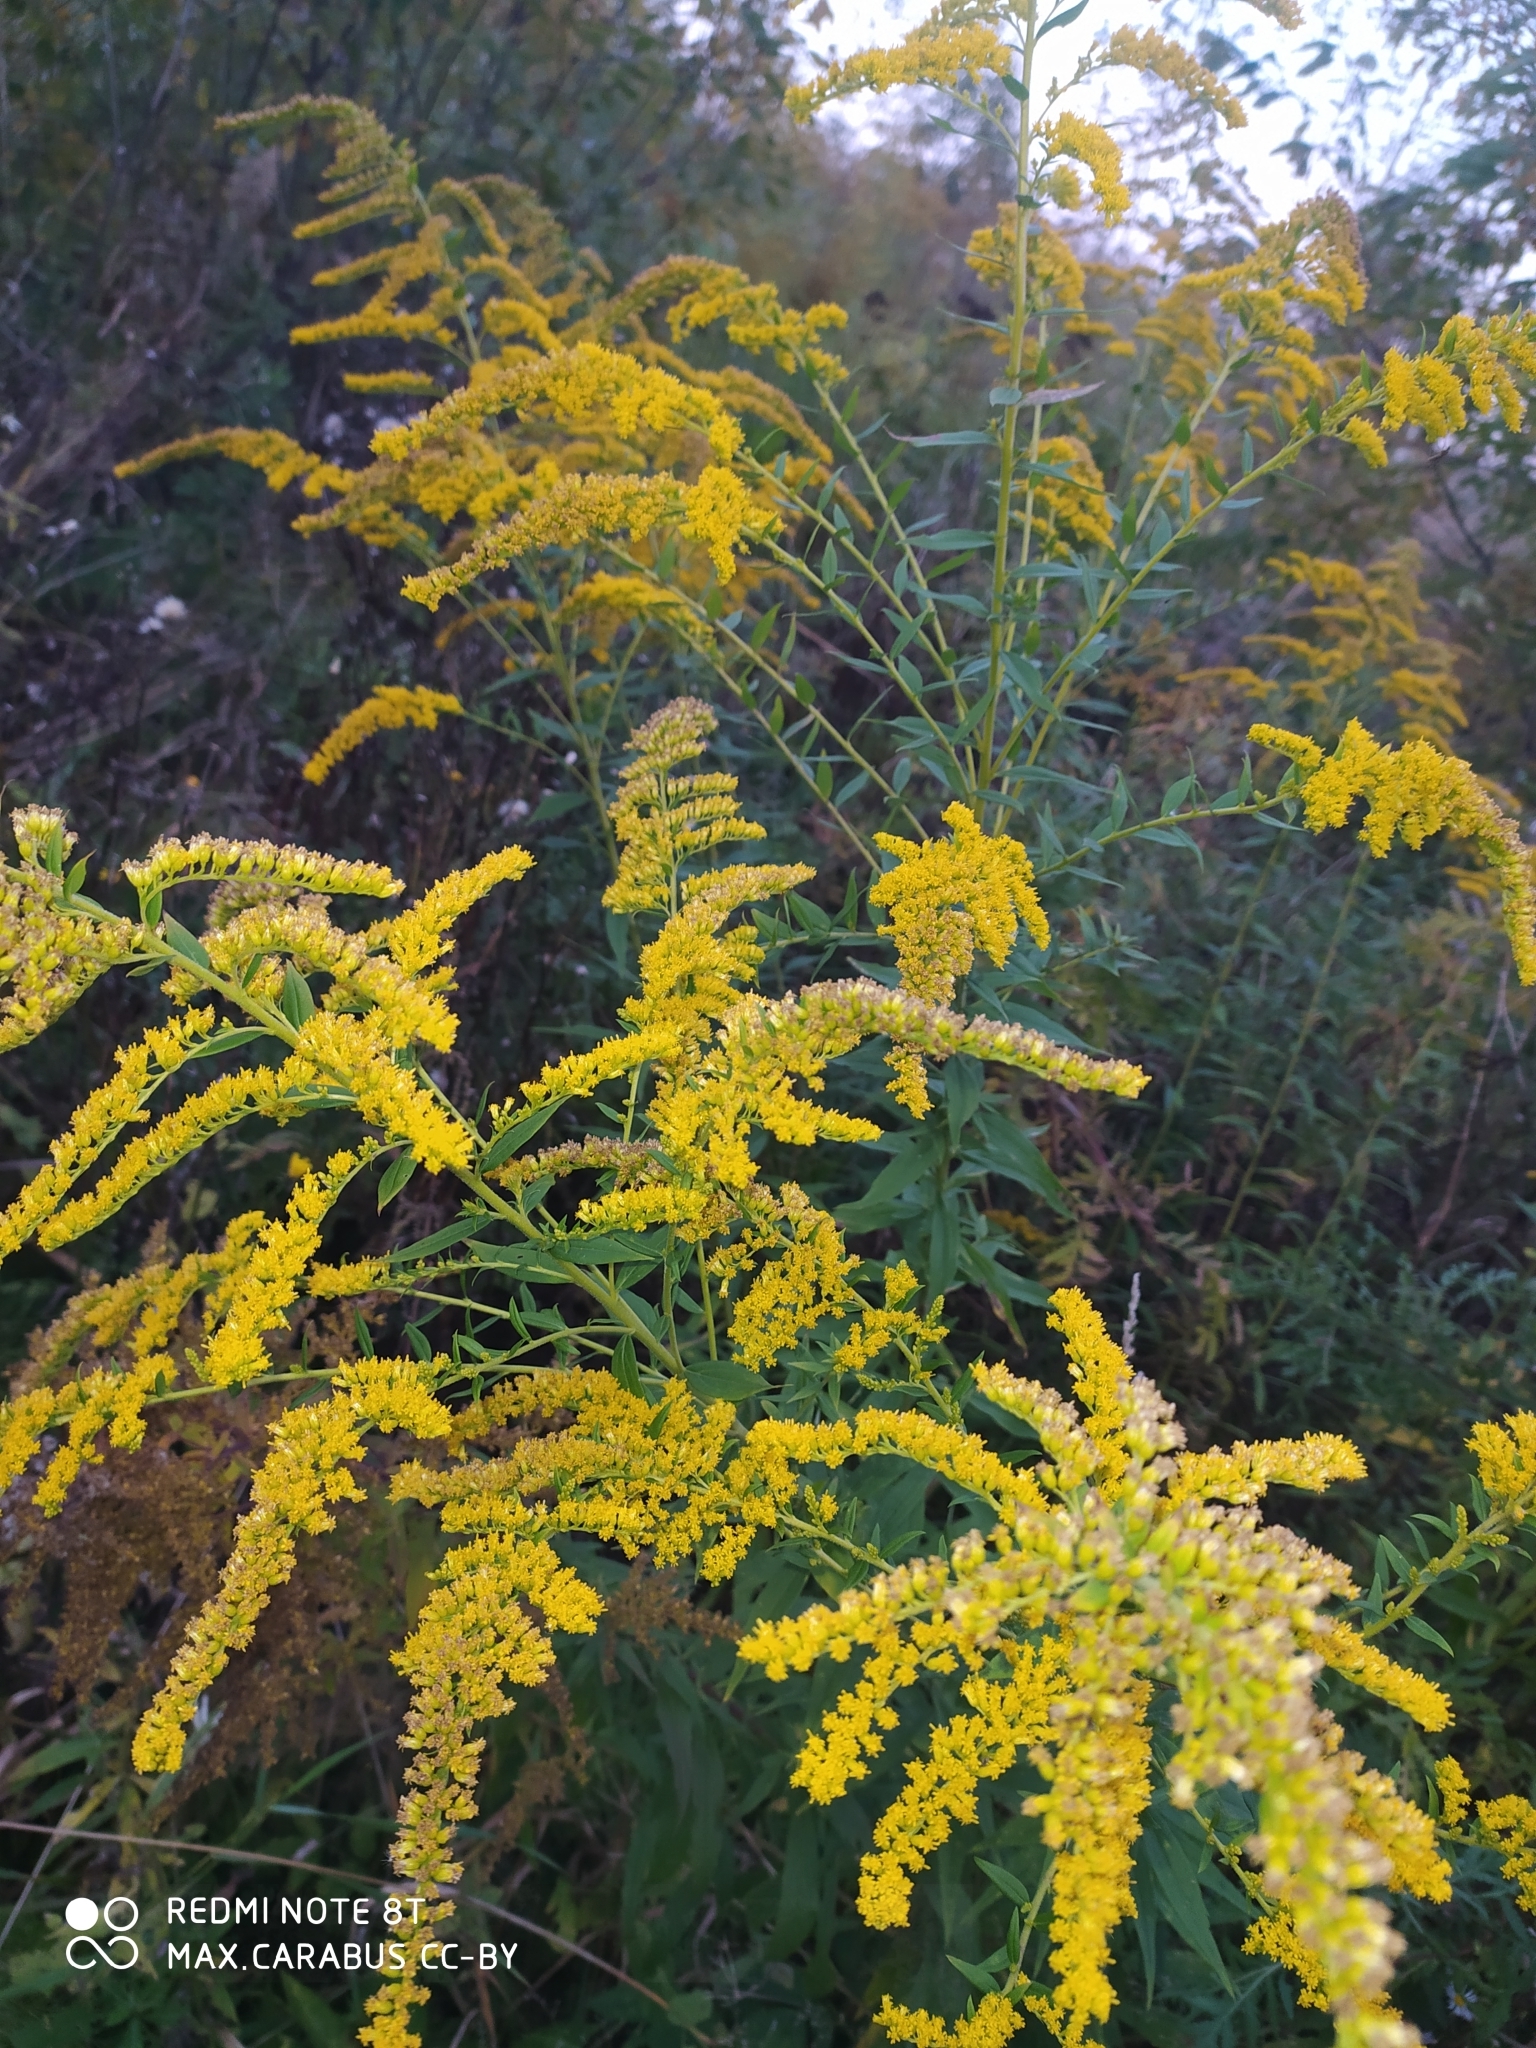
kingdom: Plantae
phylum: Tracheophyta
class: Magnoliopsida
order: Asterales
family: Asteraceae
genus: Solidago
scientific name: Solidago canadensis
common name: Canada goldenrod
